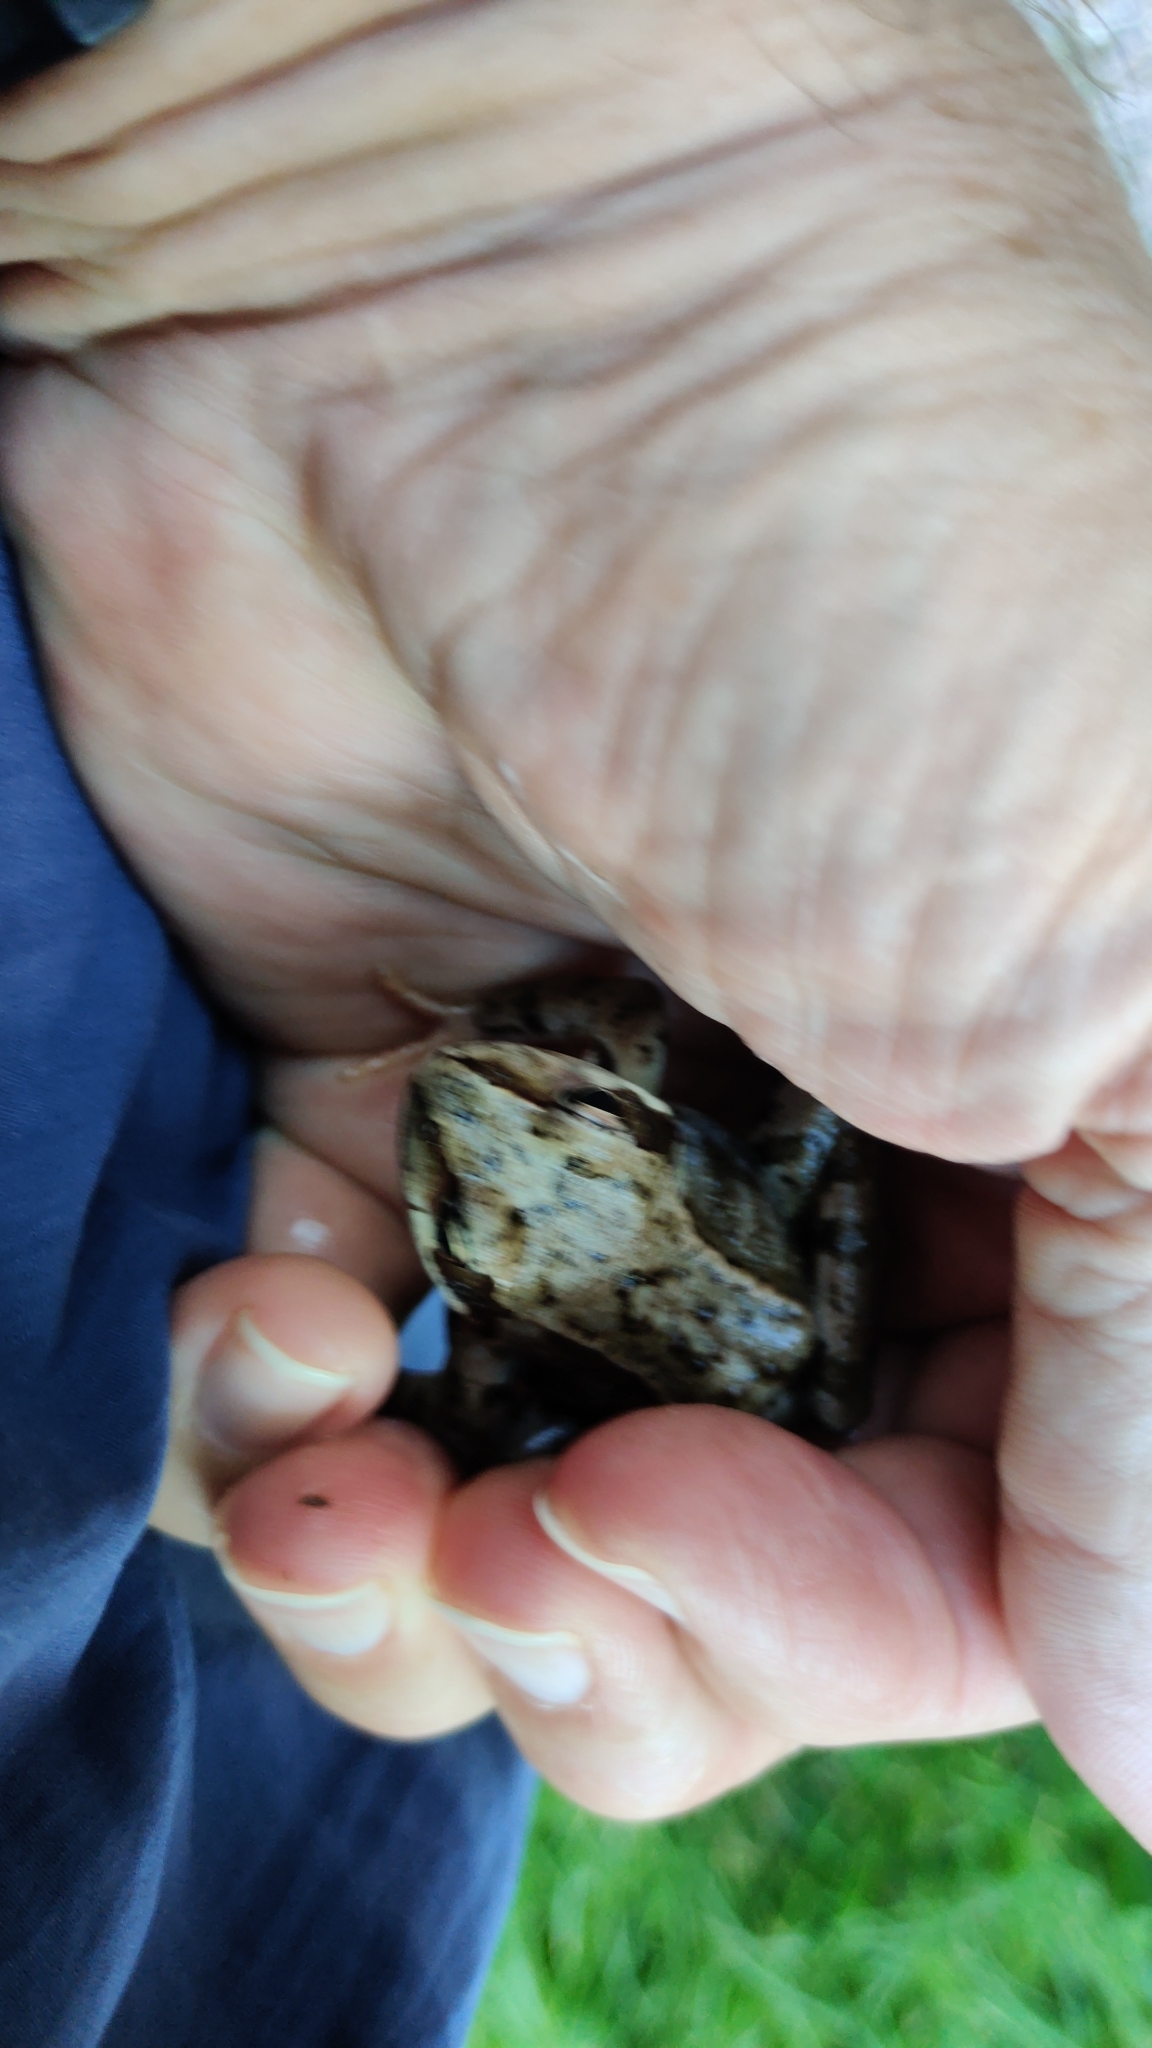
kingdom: Animalia
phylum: Chordata
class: Amphibia
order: Anura
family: Ranidae
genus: Rana
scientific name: Rana temporaria
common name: Common frog
